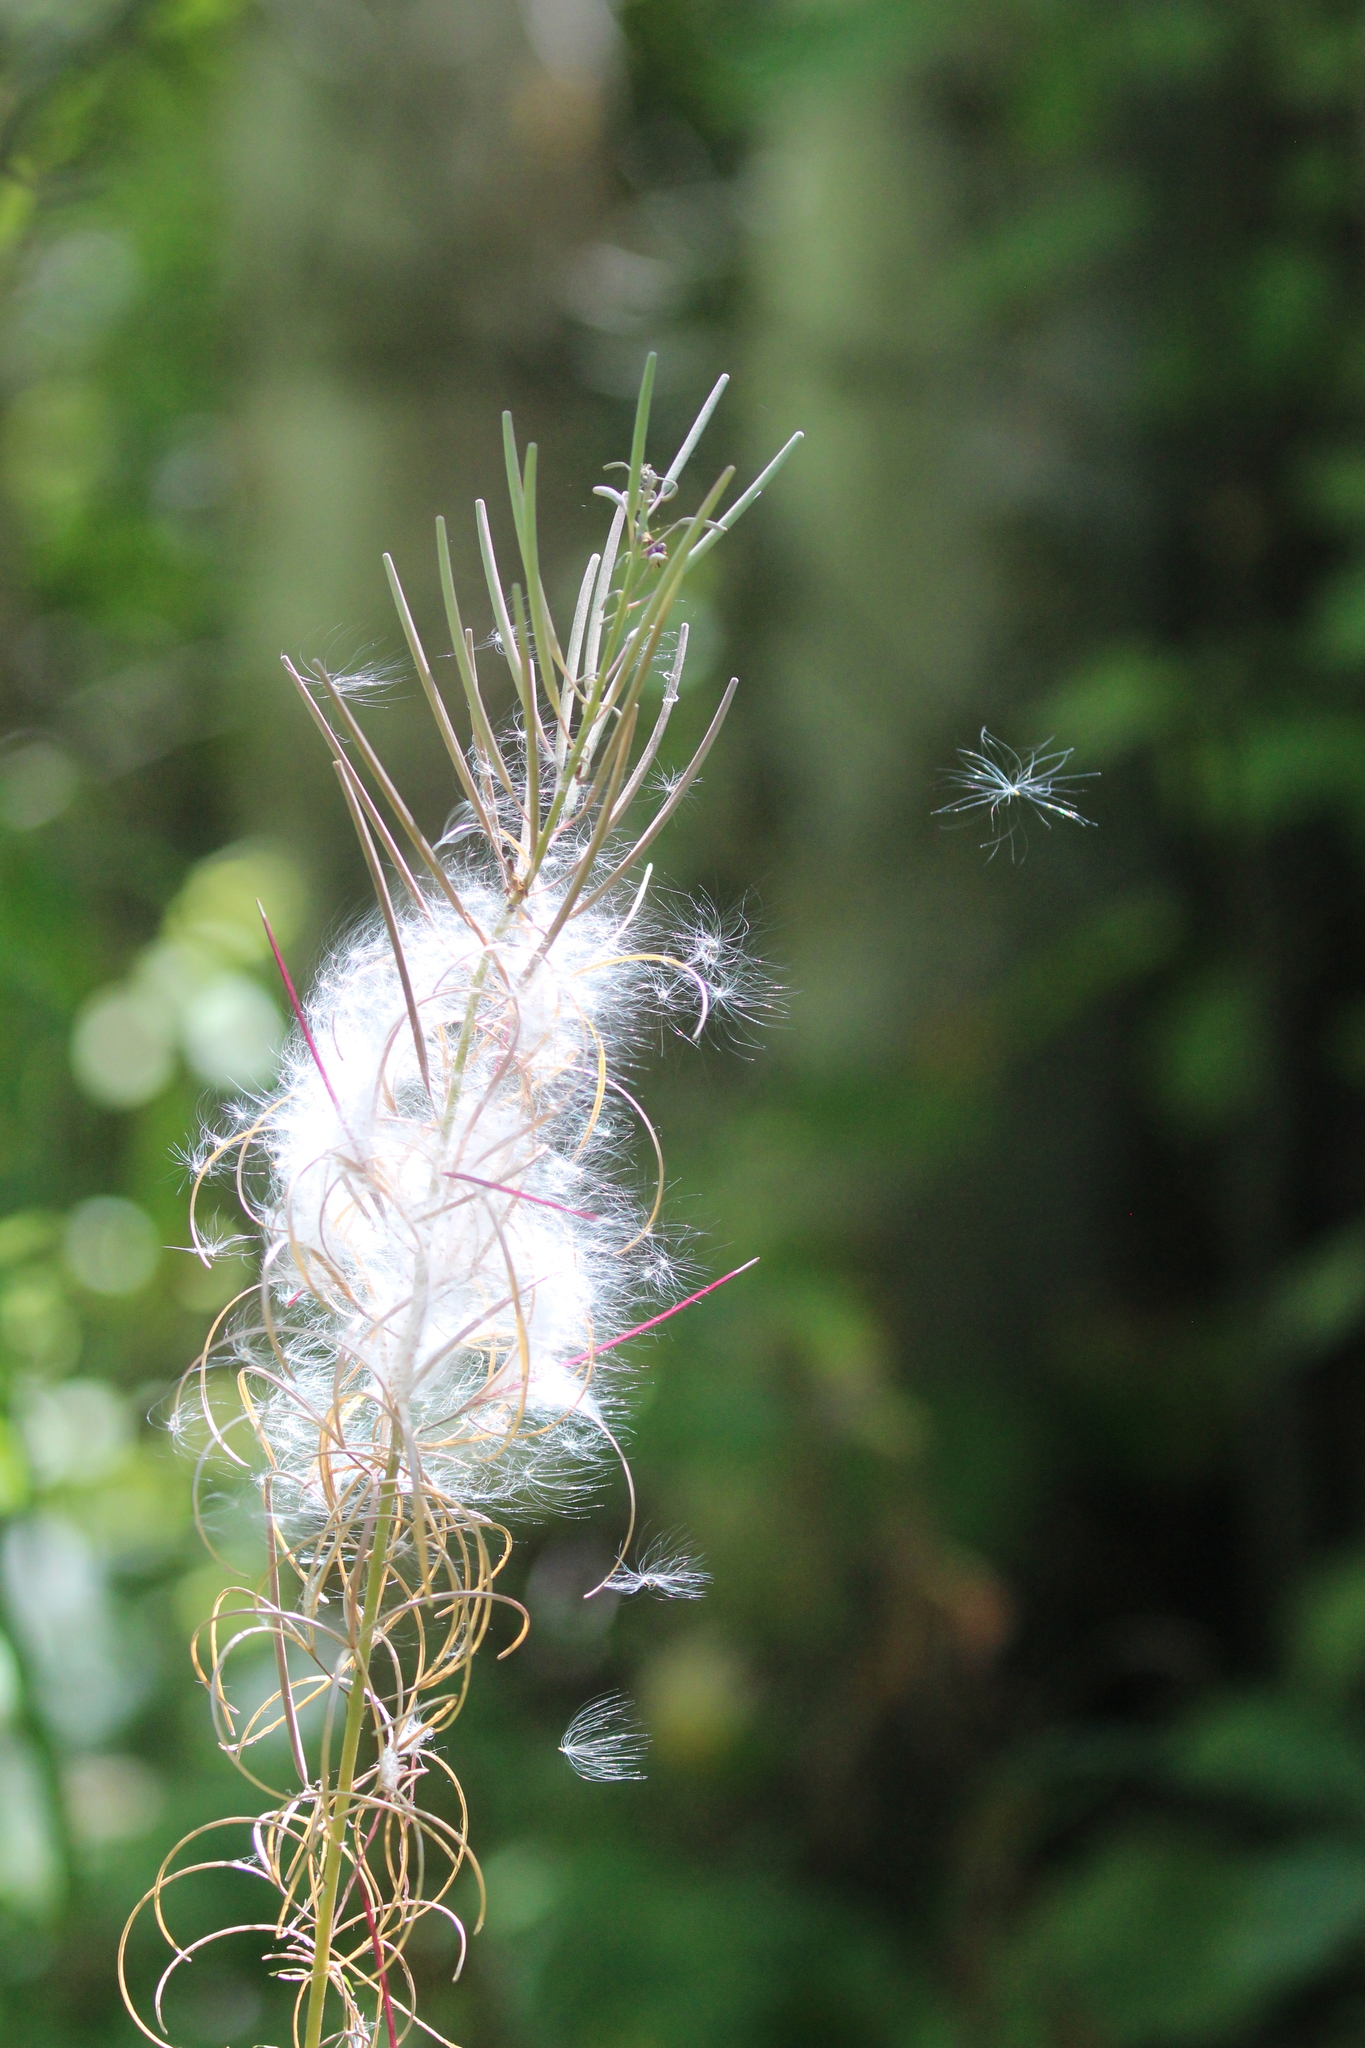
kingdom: Plantae
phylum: Tracheophyta
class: Magnoliopsida
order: Myrtales
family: Onagraceae
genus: Chamaenerion
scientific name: Chamaenerion angustifolium
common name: Fireweed
